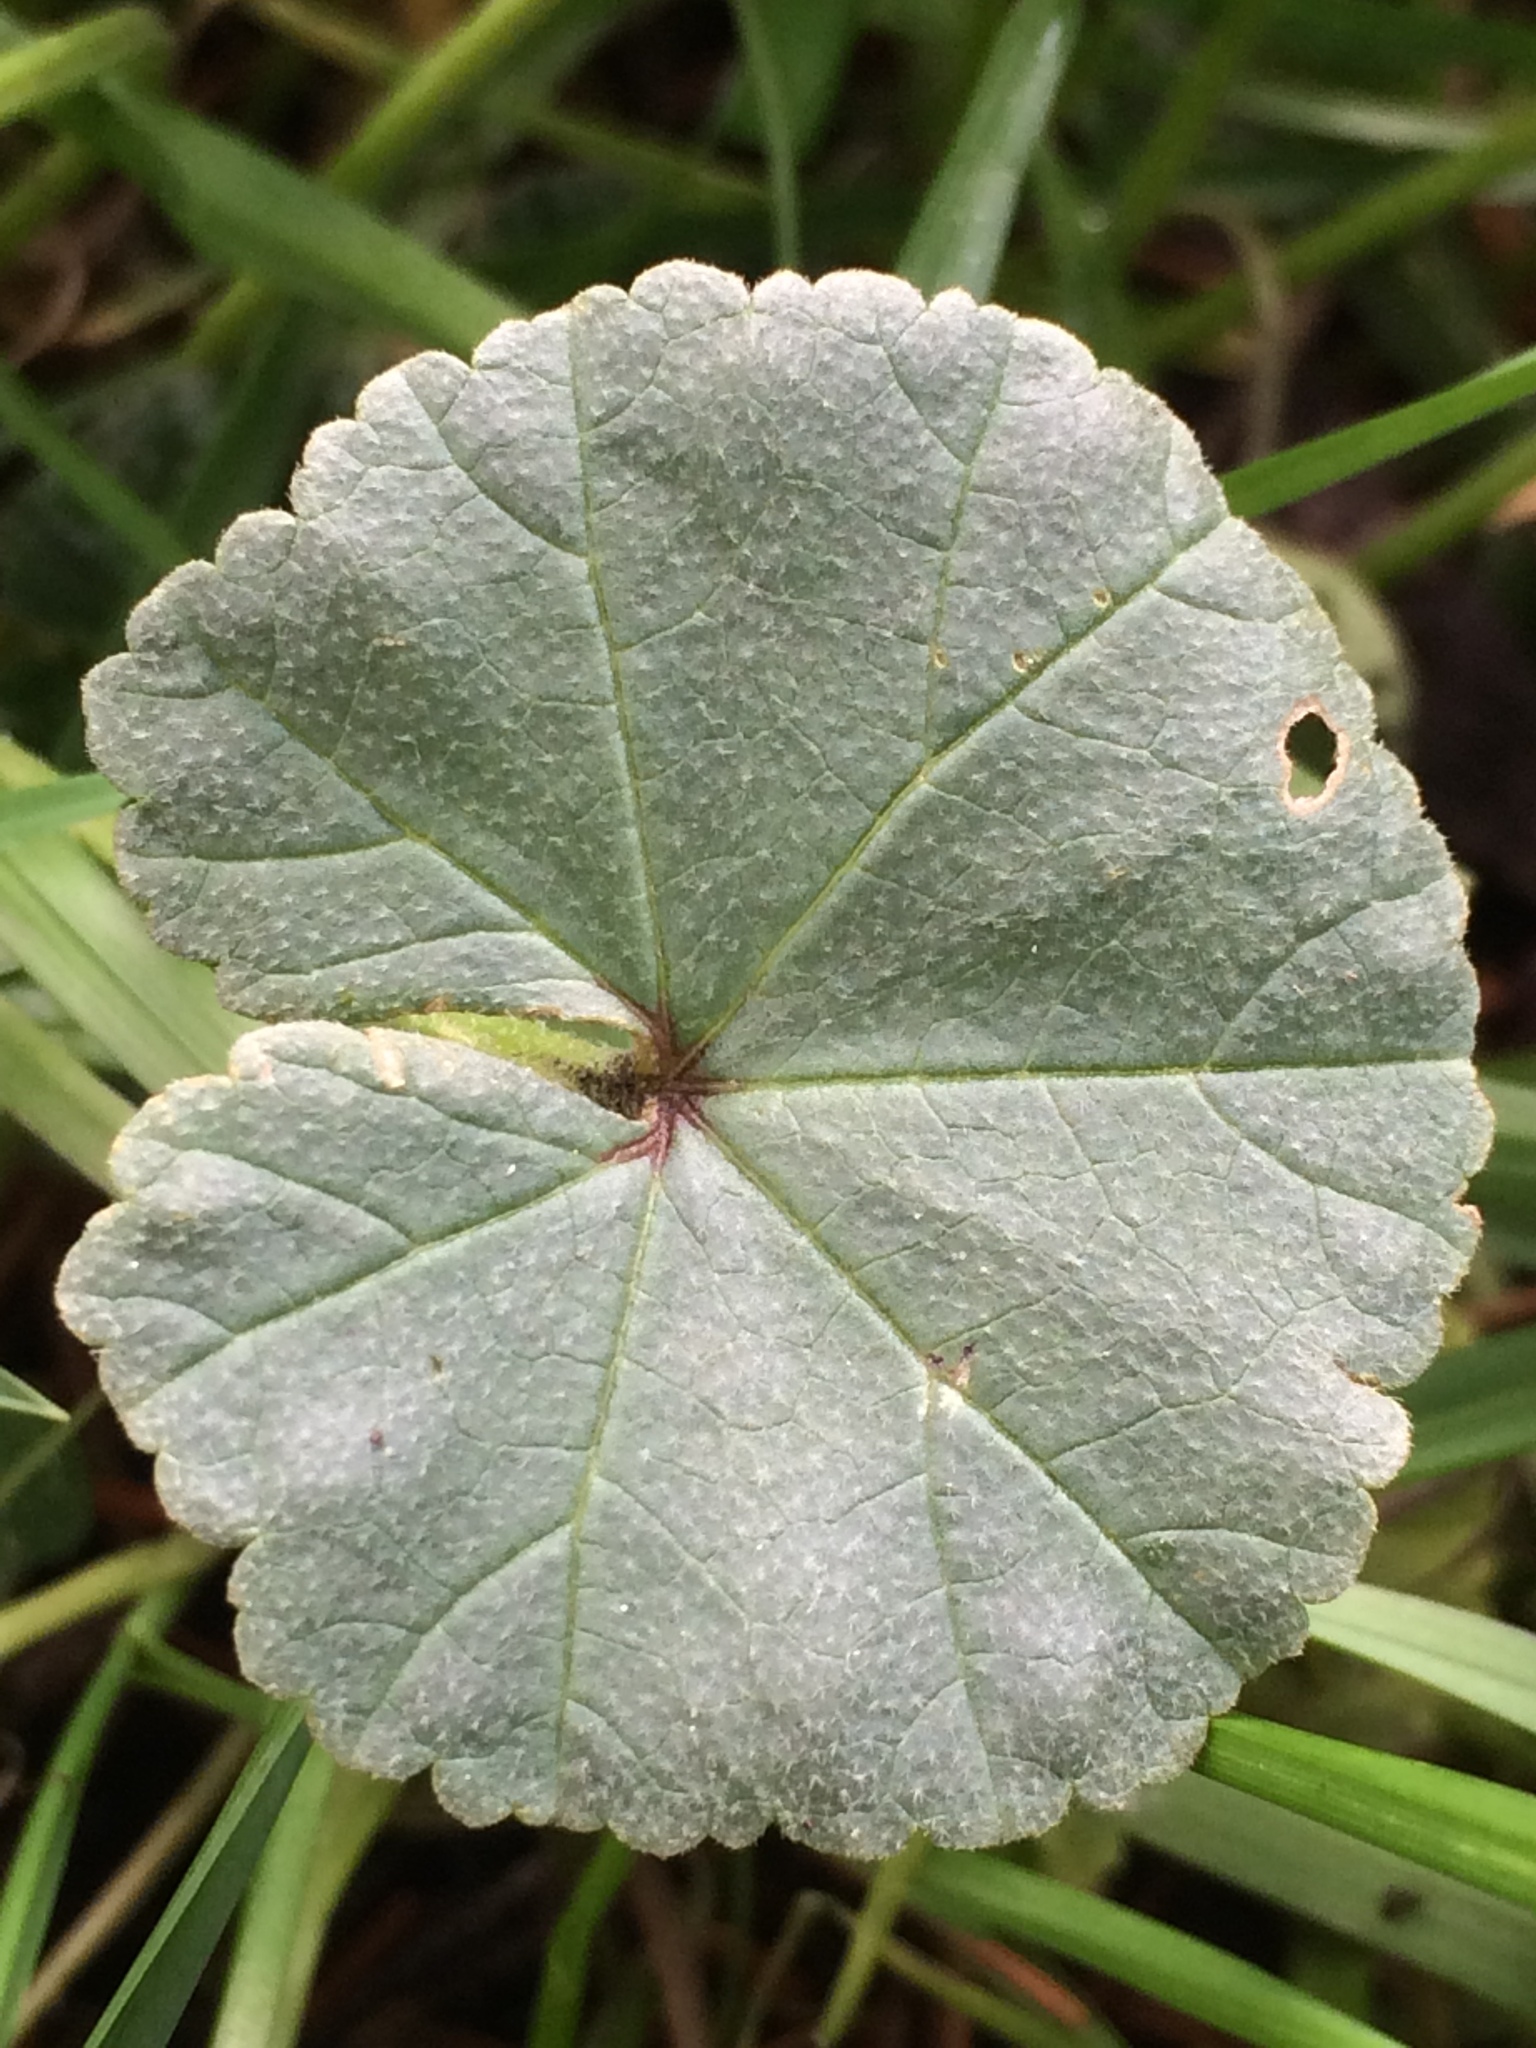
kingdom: Plantae
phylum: Tracheophyta
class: Magnoliopsida
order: Malvales
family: Malvaceae
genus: Malva
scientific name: Malva neglecta
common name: Common mallow
